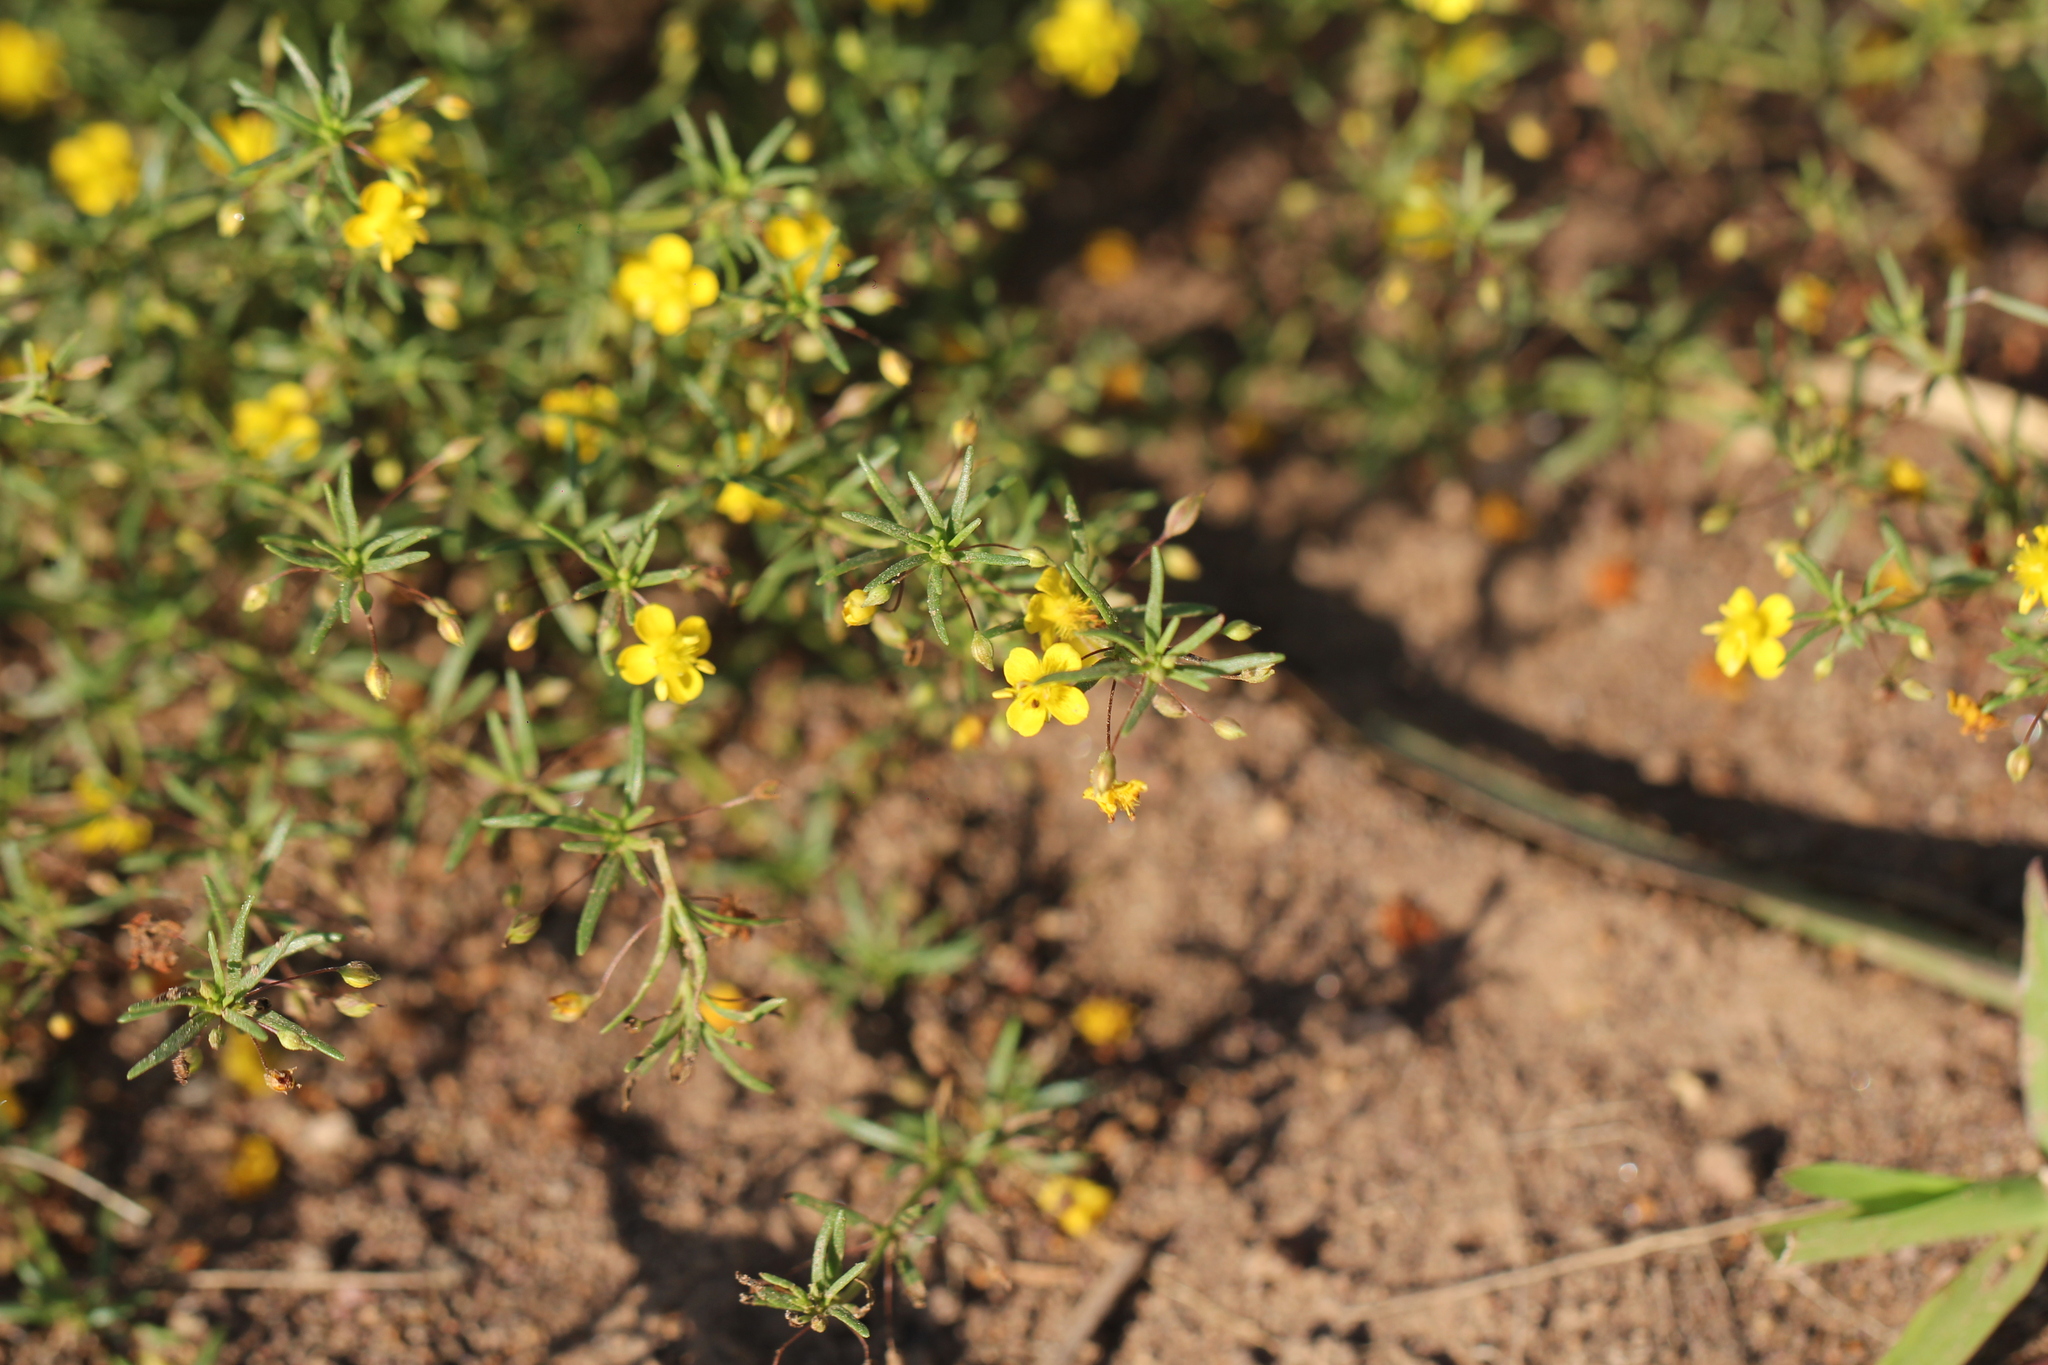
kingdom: Plantae
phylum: Tracheophyta
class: Magnoliopsida
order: Lamiales
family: Plantaginaceae
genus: Scoparia
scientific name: Scoparia montevidensis
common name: Broomwort
